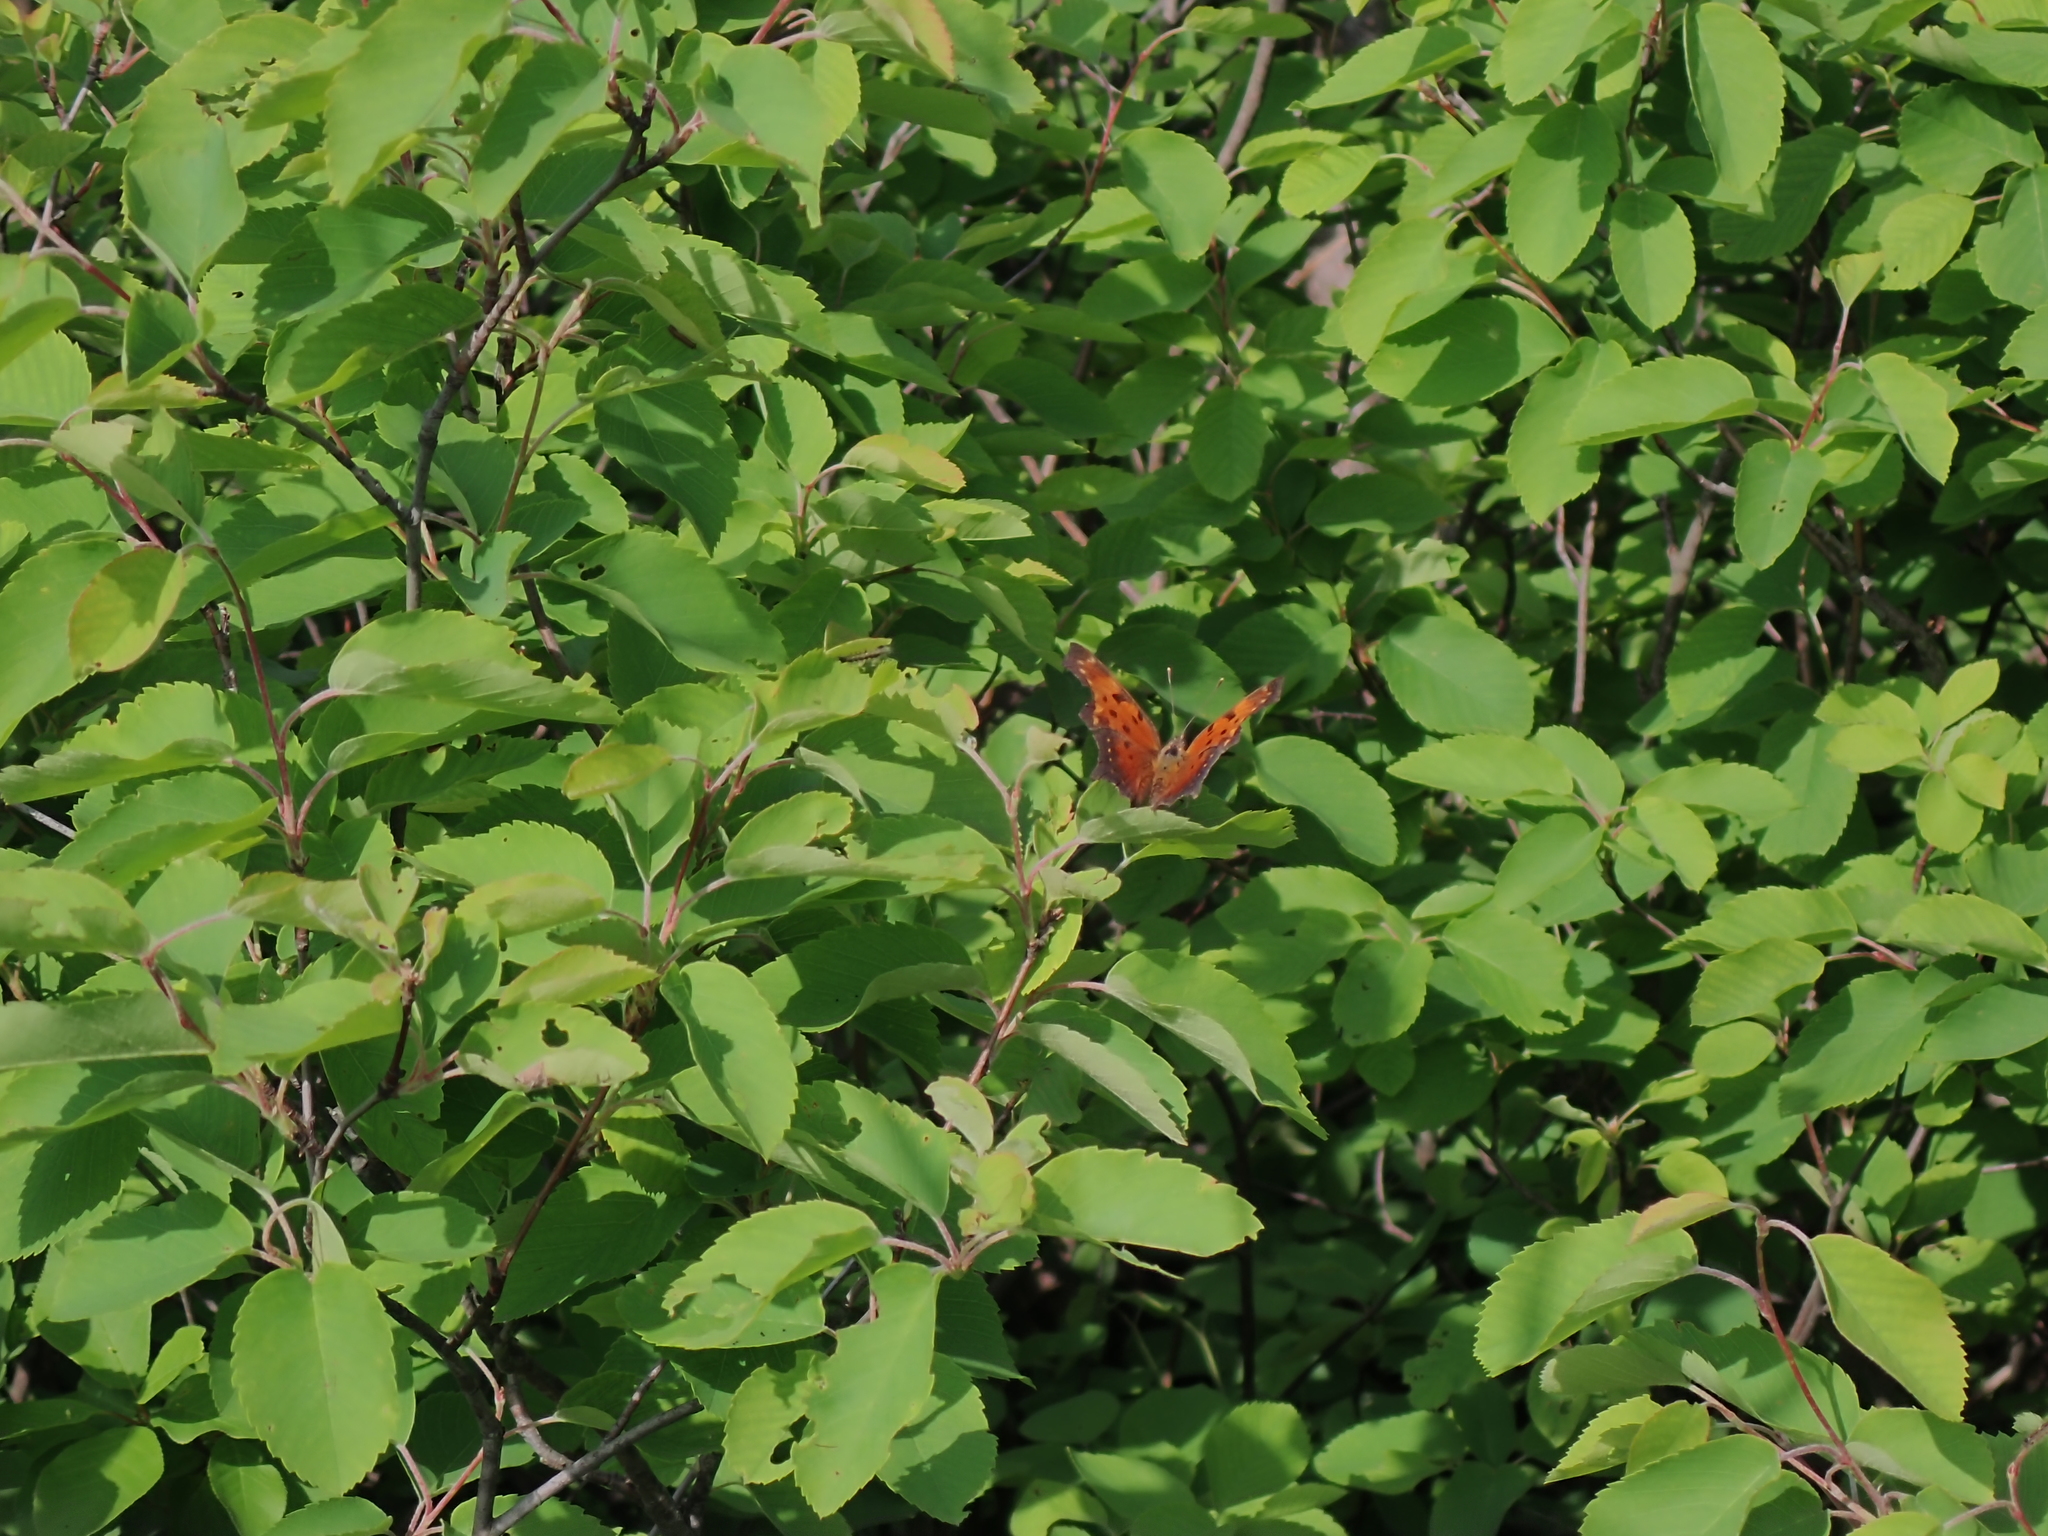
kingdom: Animalia
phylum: Arthropoda
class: Insecta
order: Lepidoptera
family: Nymphalidae
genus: Polygonia
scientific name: Polygonia progne
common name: Gray comma
